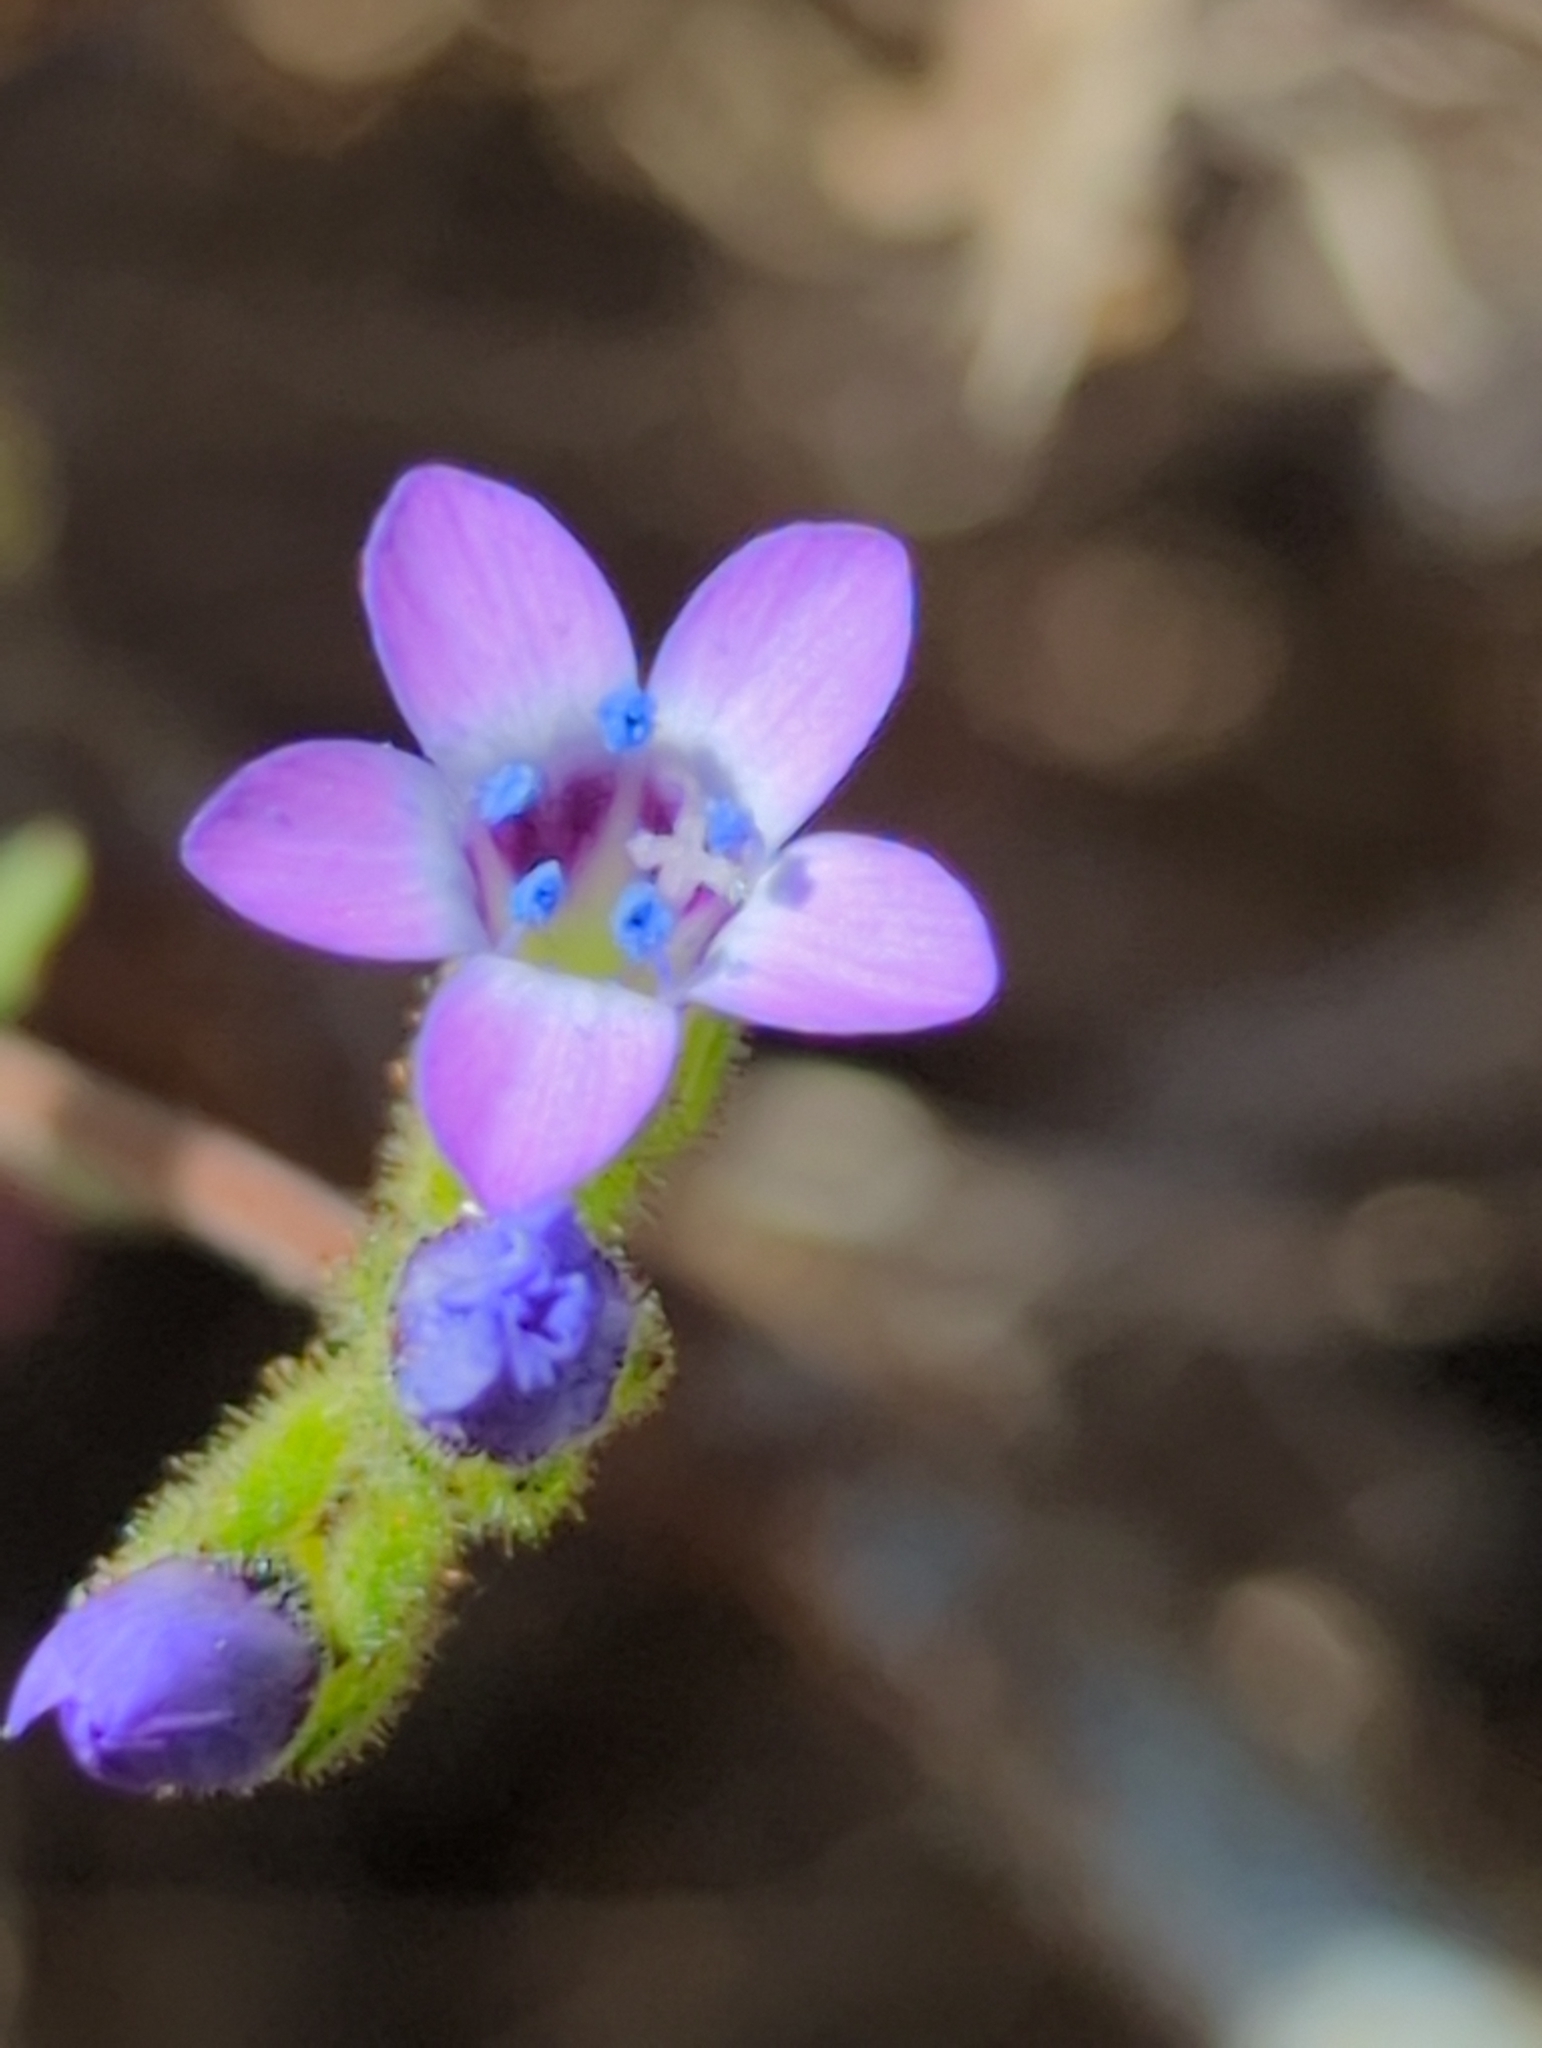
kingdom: Plantae
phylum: Tracheophyta
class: Magnoliopsida
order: Ericales
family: Polemoniaceae
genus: Gilia
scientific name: Gilia clivorum
